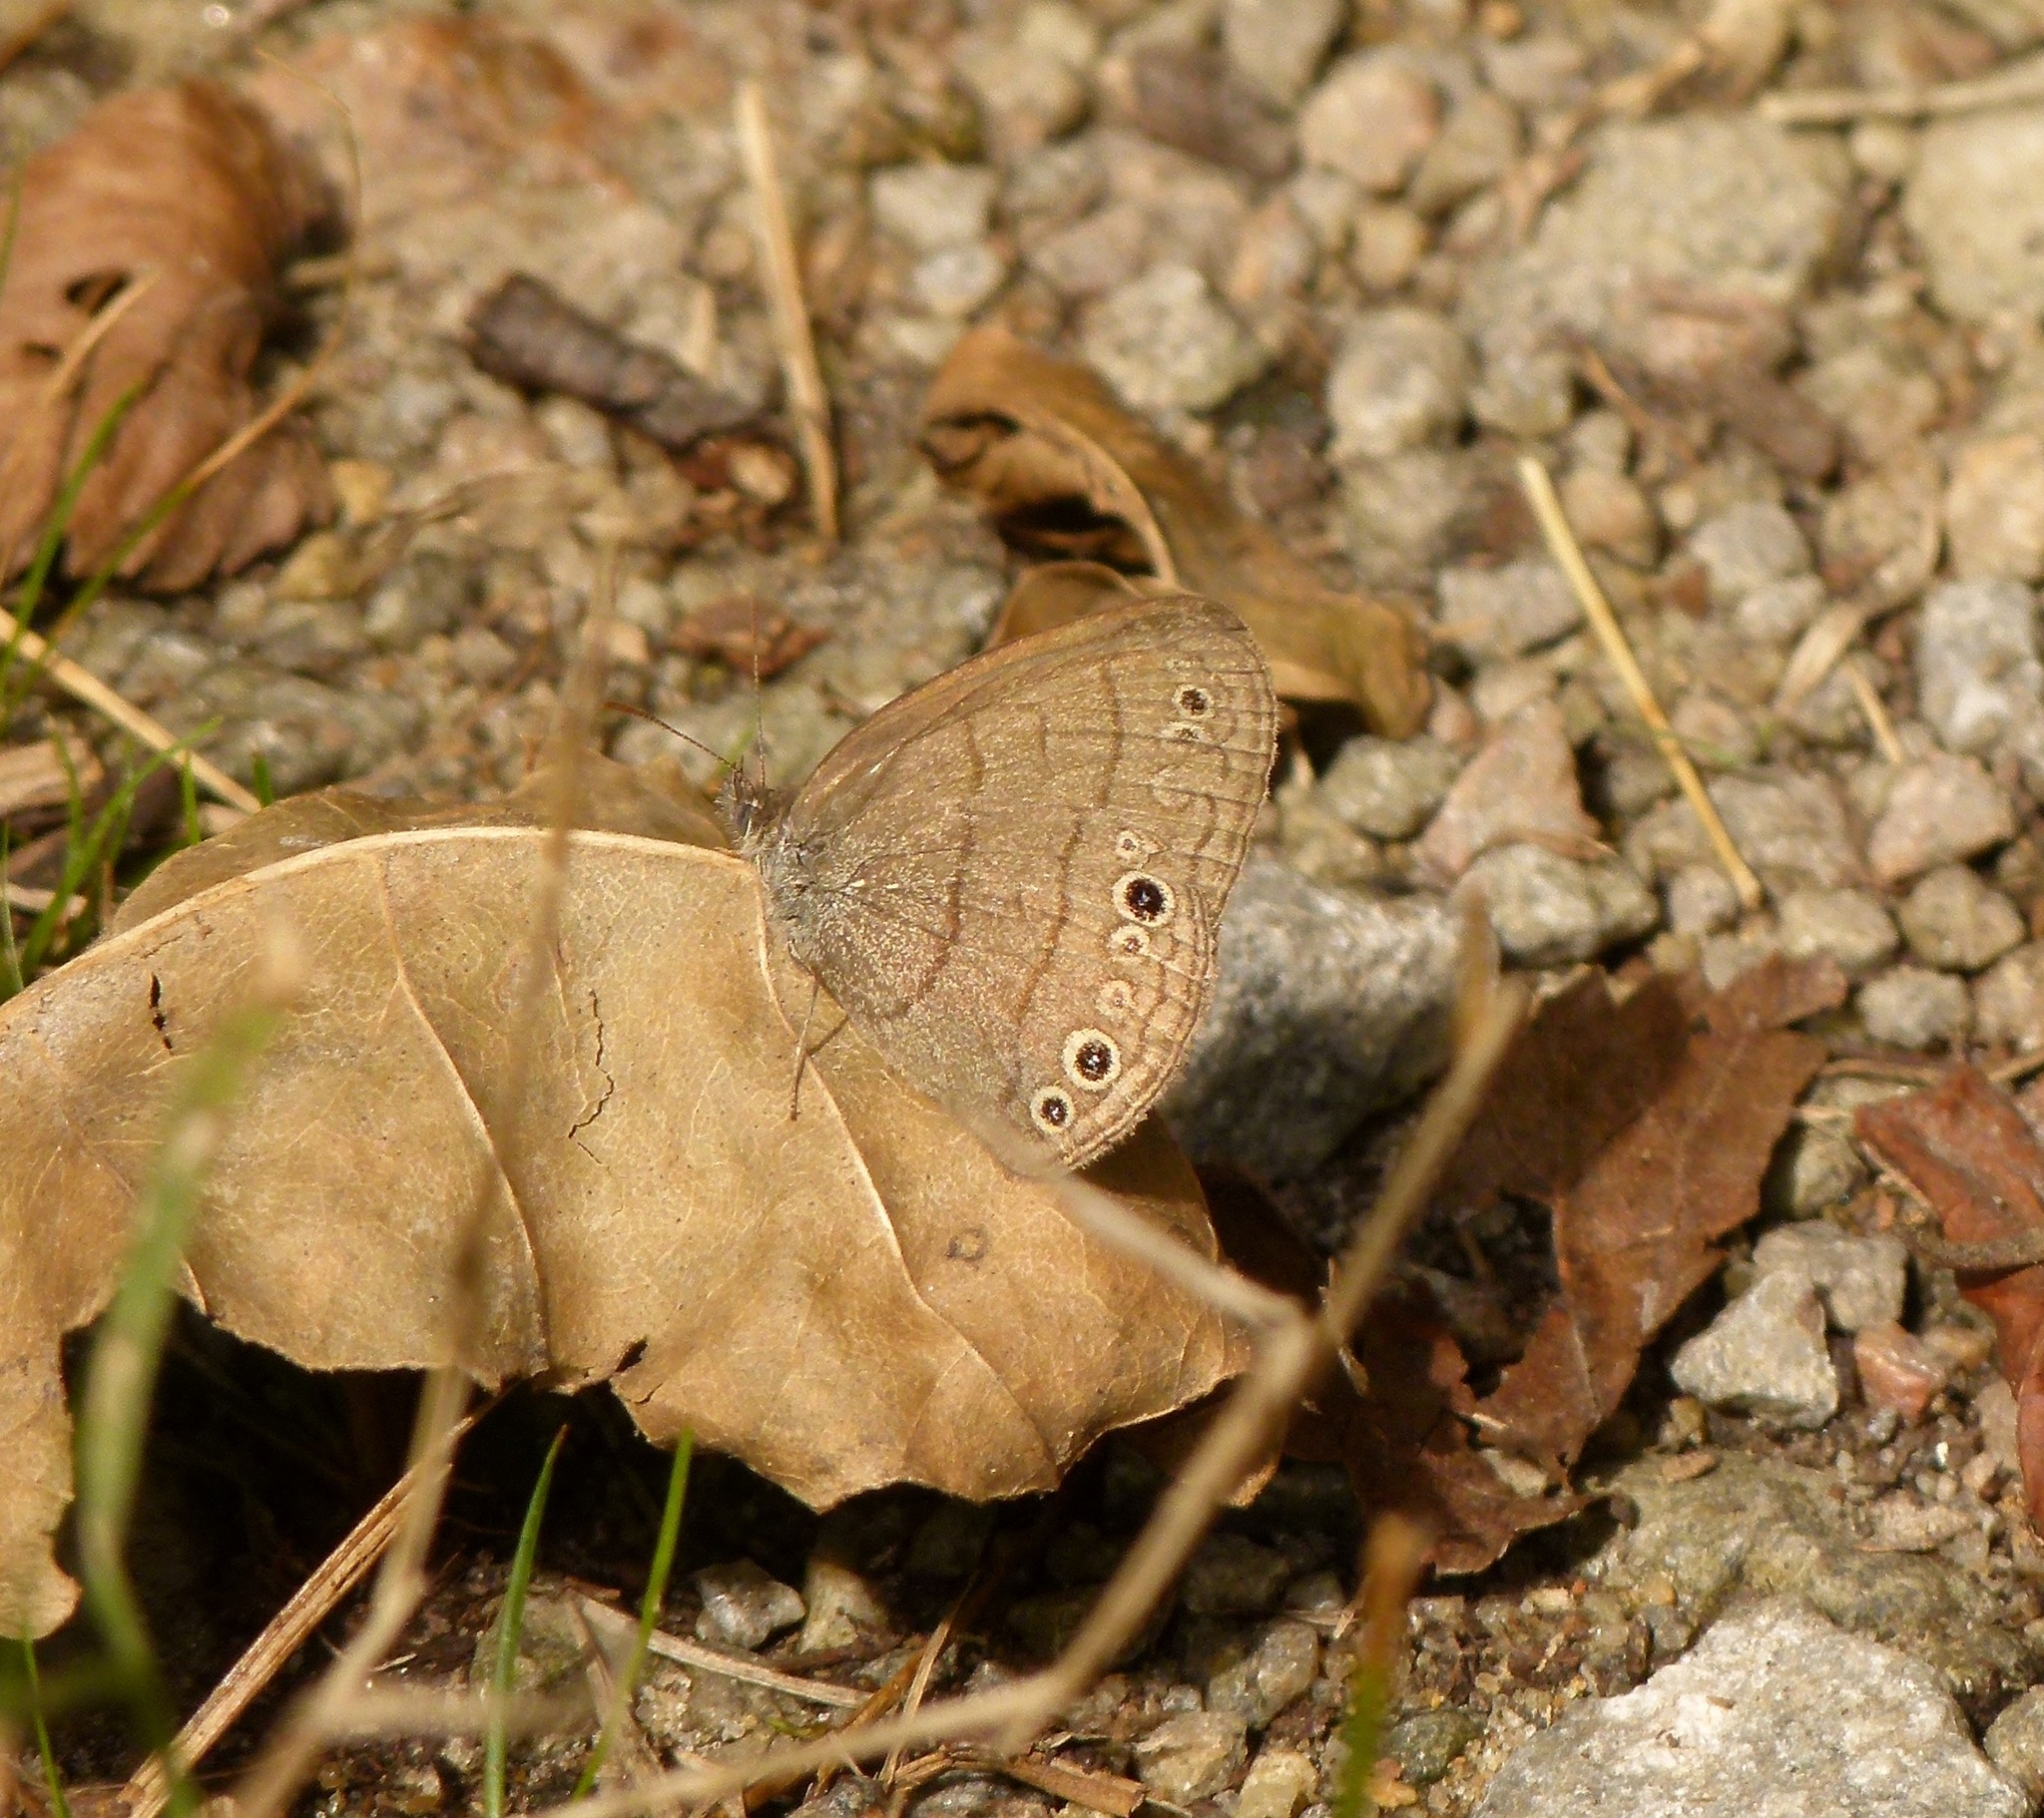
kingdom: Animalia
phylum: Arthropoda
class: Insecta
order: Lepidoptera
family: Nymphalidae
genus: Hermeuptychia
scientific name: Hermeuptychia hermes
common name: Hermes satyr
